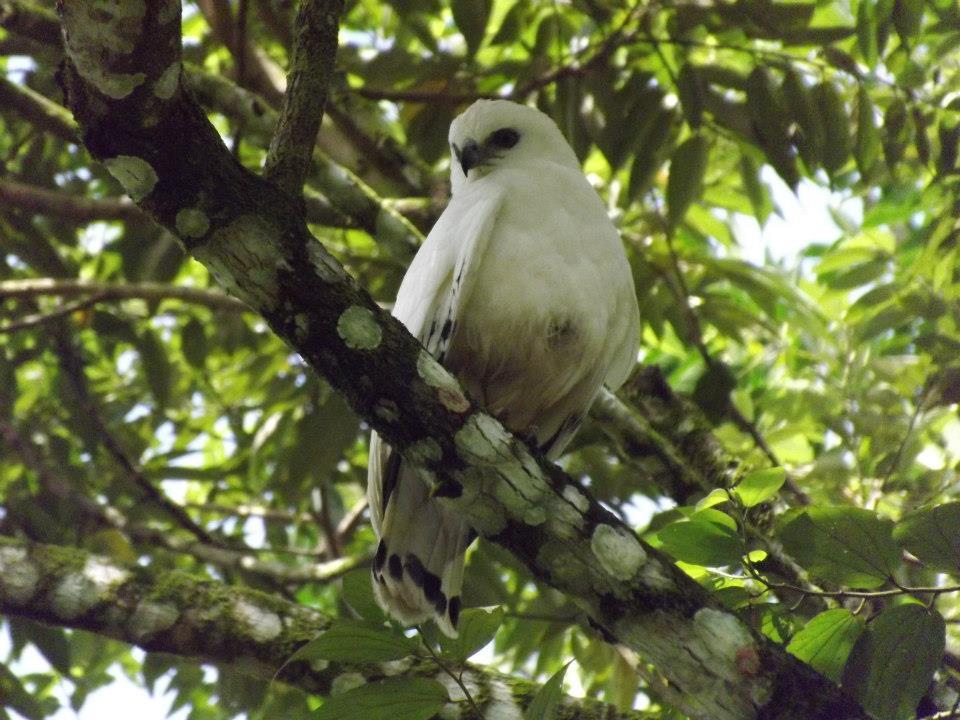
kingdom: Animalia
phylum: Chordata
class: Aves
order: Accipitriformes
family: Accipitridae
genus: Leucopternis
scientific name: Leucopternis albicollis
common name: White hawk
